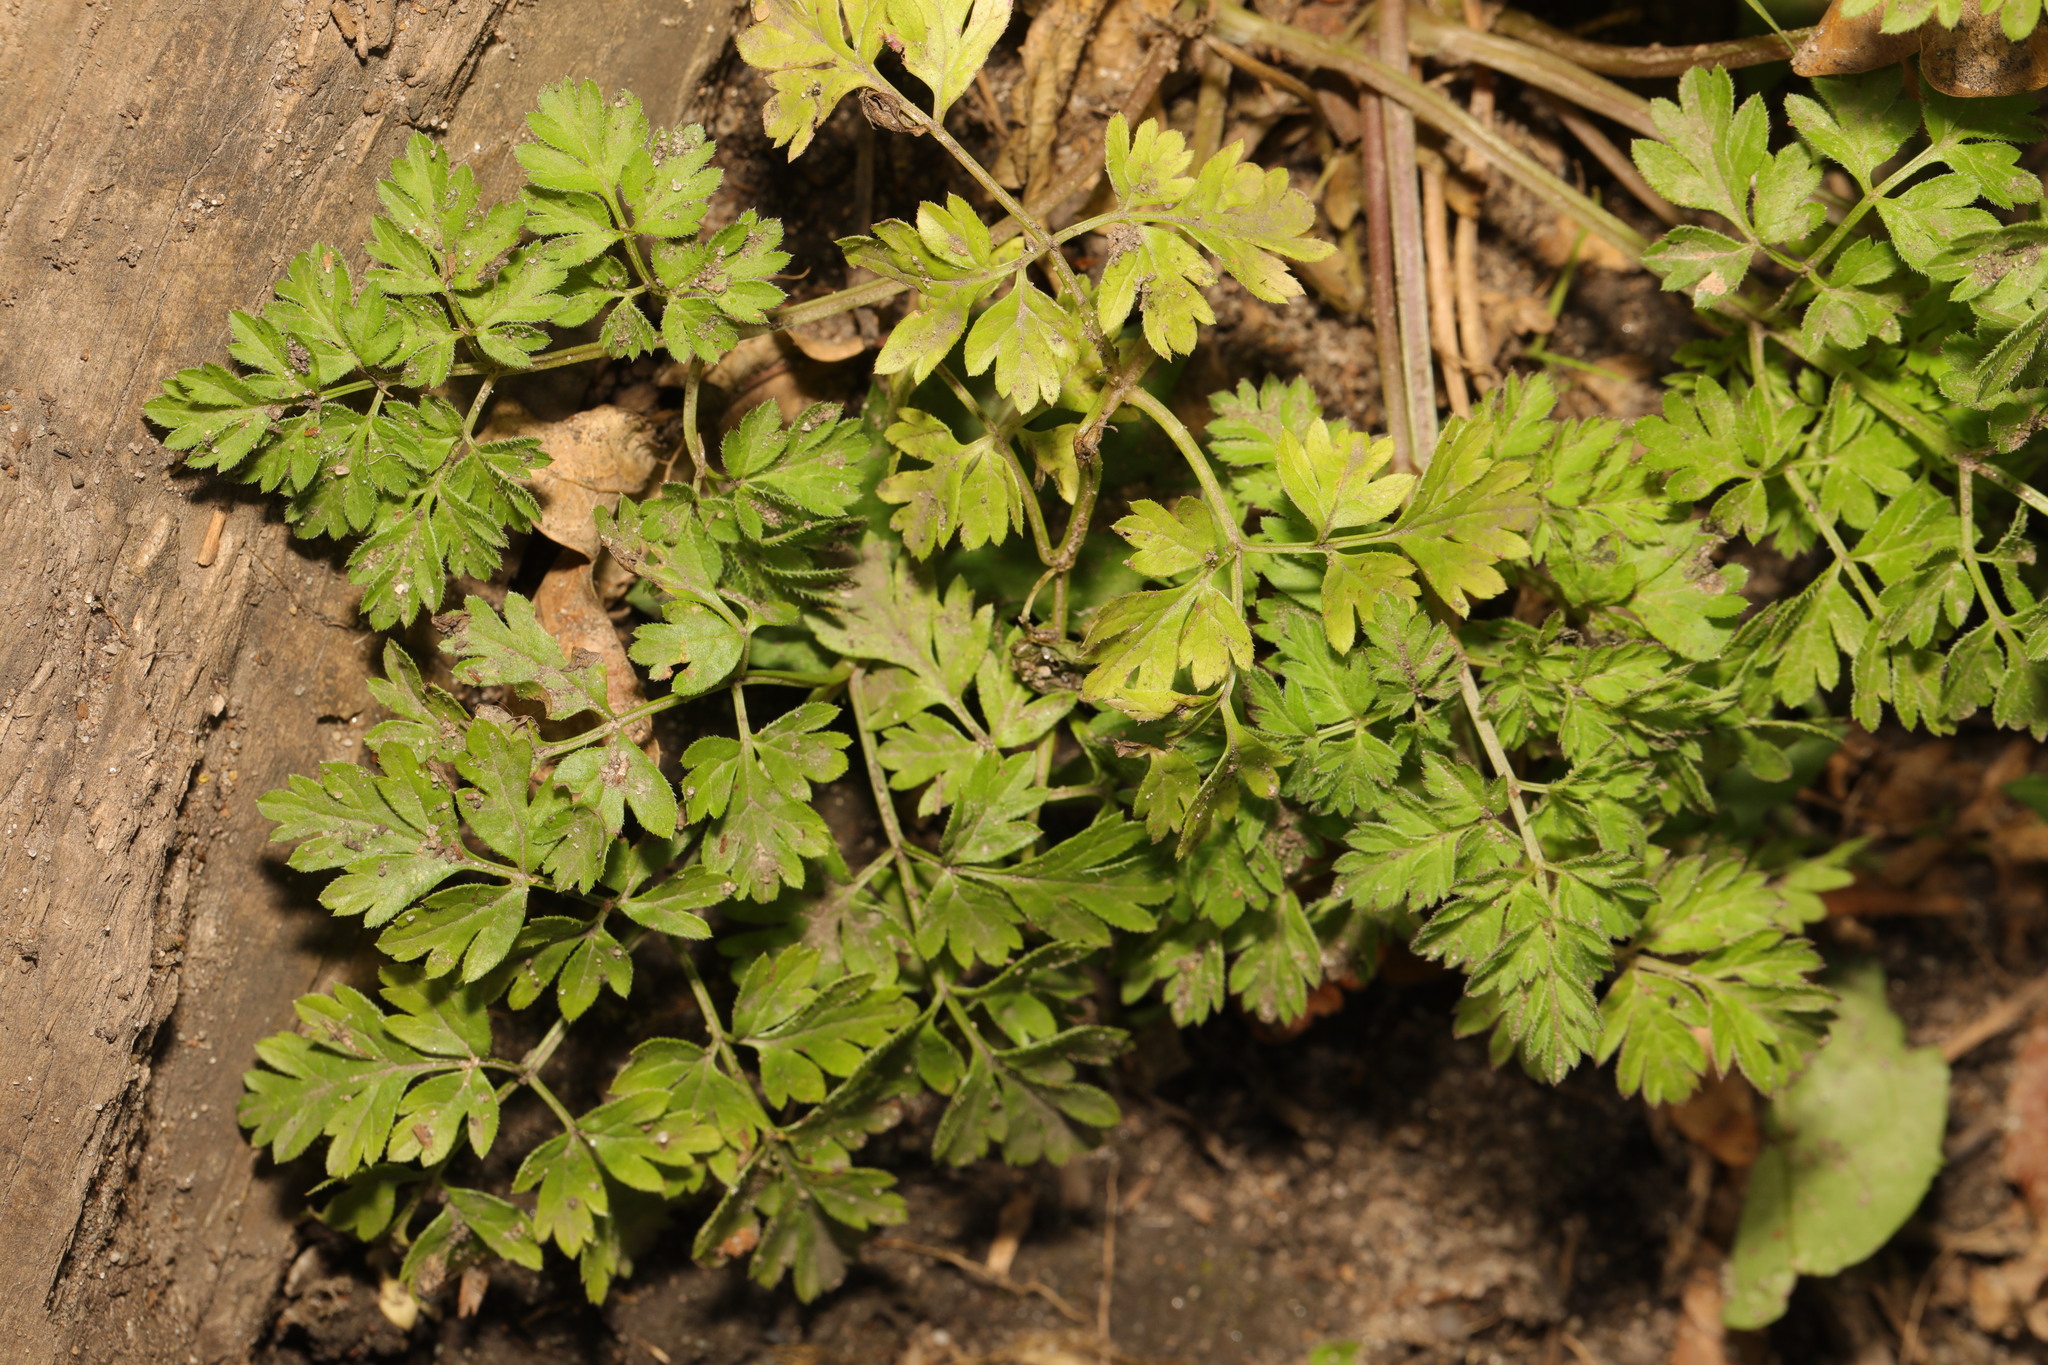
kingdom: Plantae
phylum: Tracheophyta
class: Magnoliopsida
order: Apiales
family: Apiaceae
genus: Anthriscus
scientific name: Anthriscus sylvestris
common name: Cow parsley
